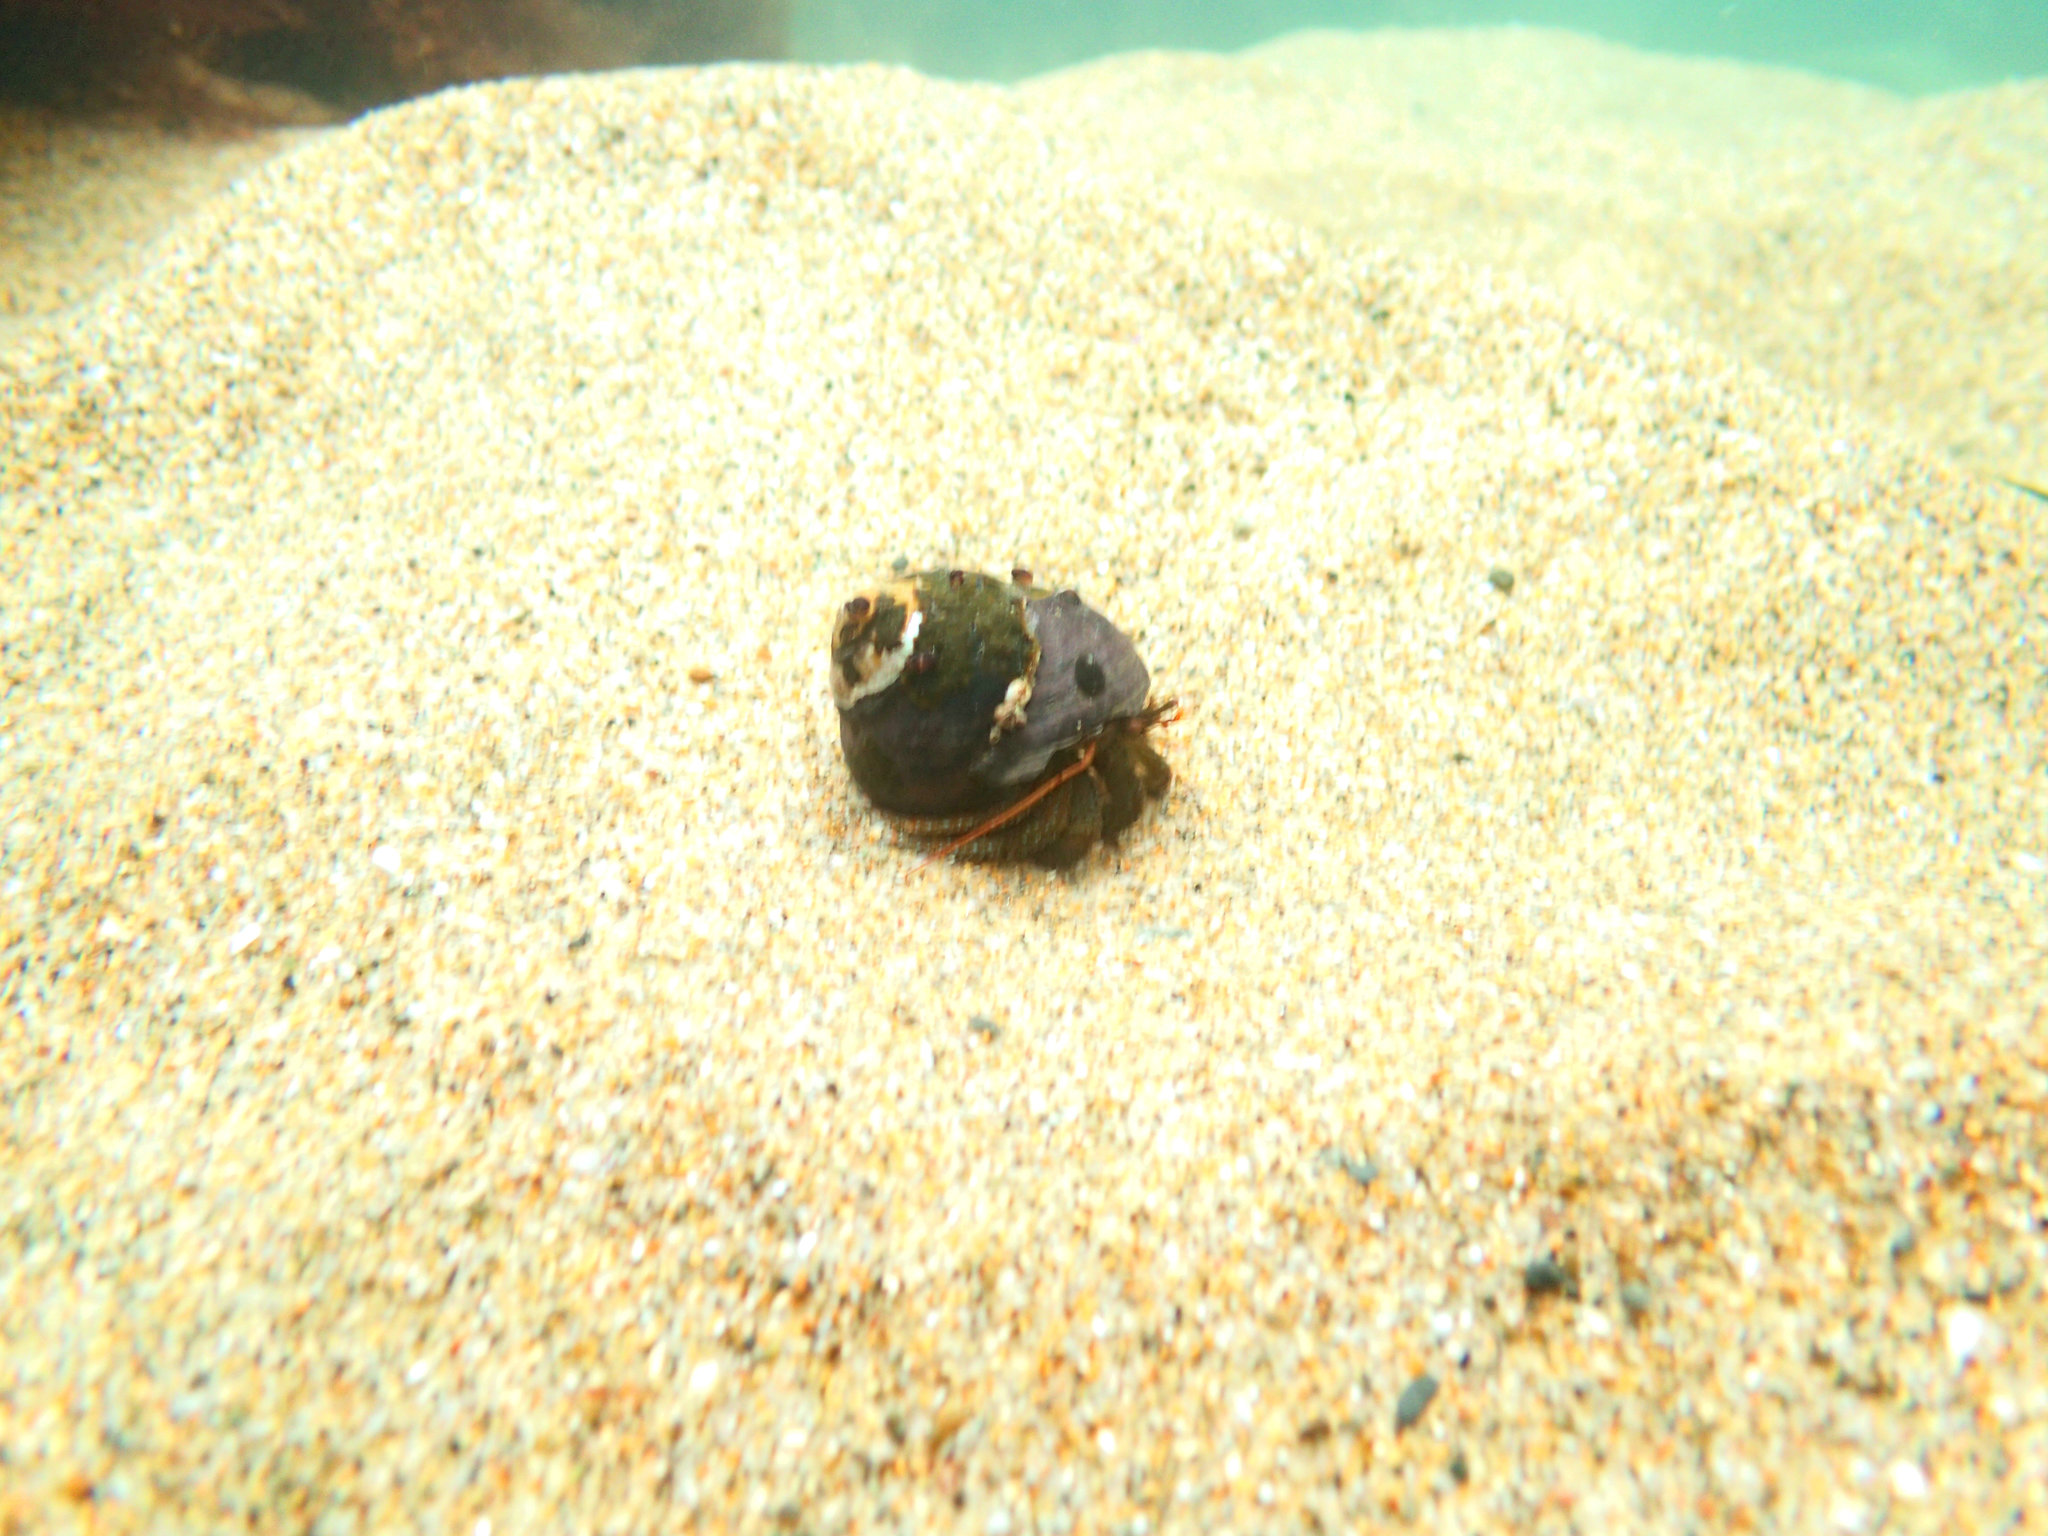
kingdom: Animalia
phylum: Arthropoda
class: Malacostraca
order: Decapoda
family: Paguridae
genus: Pagurus
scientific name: Pagurus granosimanus
